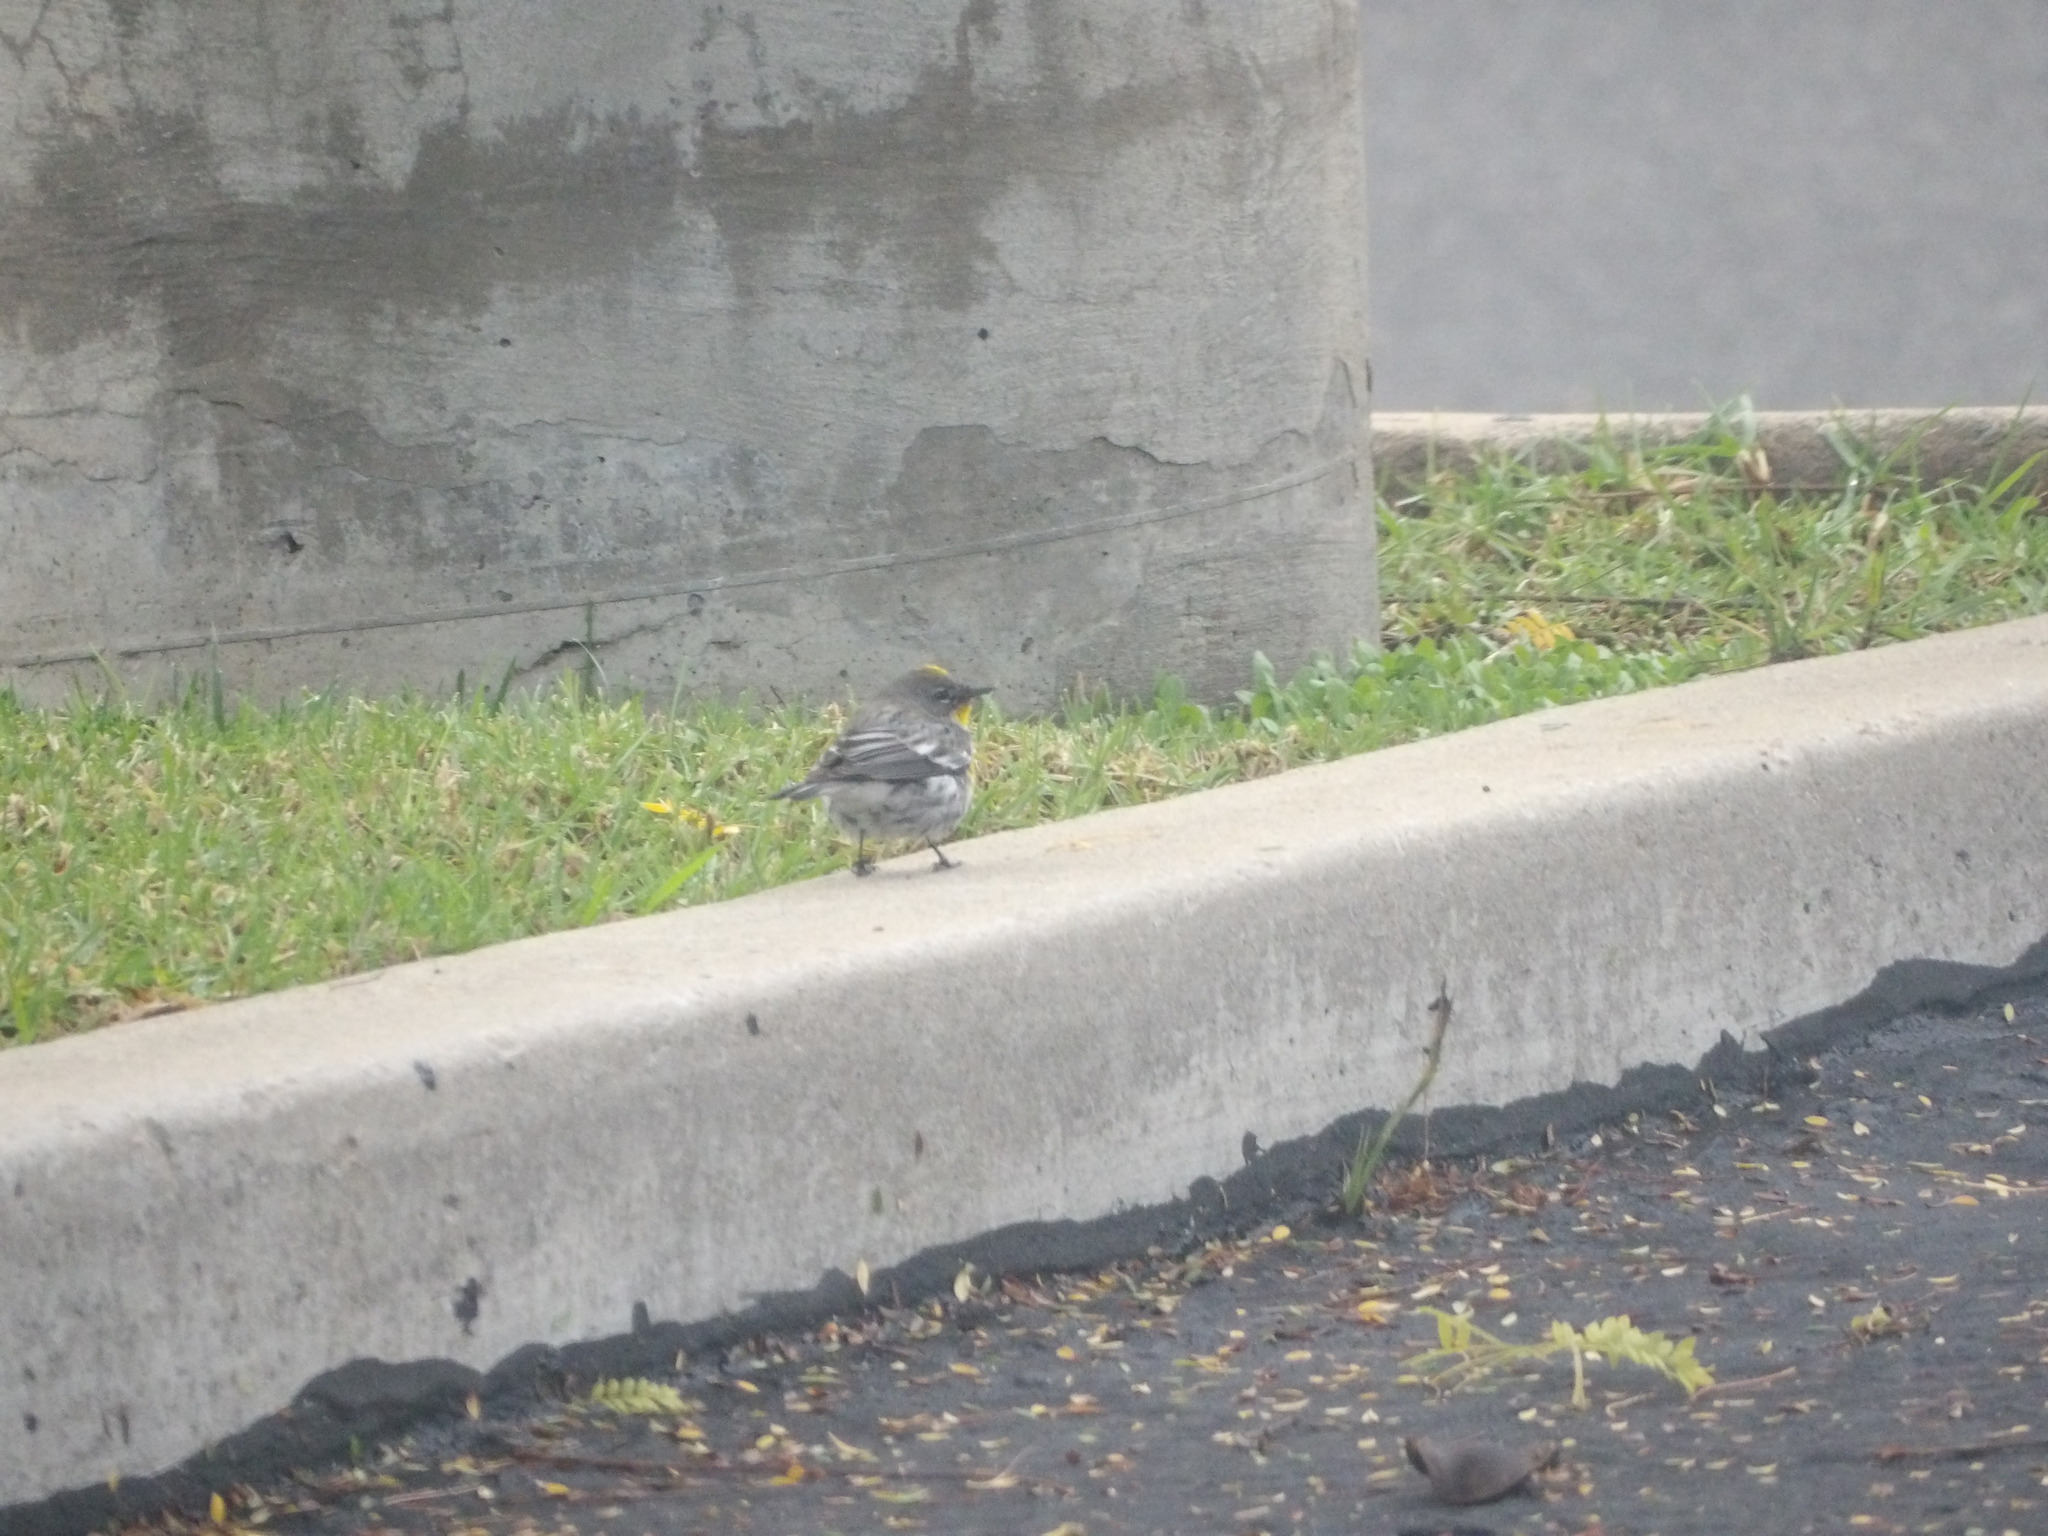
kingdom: Animalia
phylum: Chordata
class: Aves
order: Passeriformes
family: Parulidae
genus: Setophaga
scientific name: Setophaga coronata
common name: Myrtle warbler
